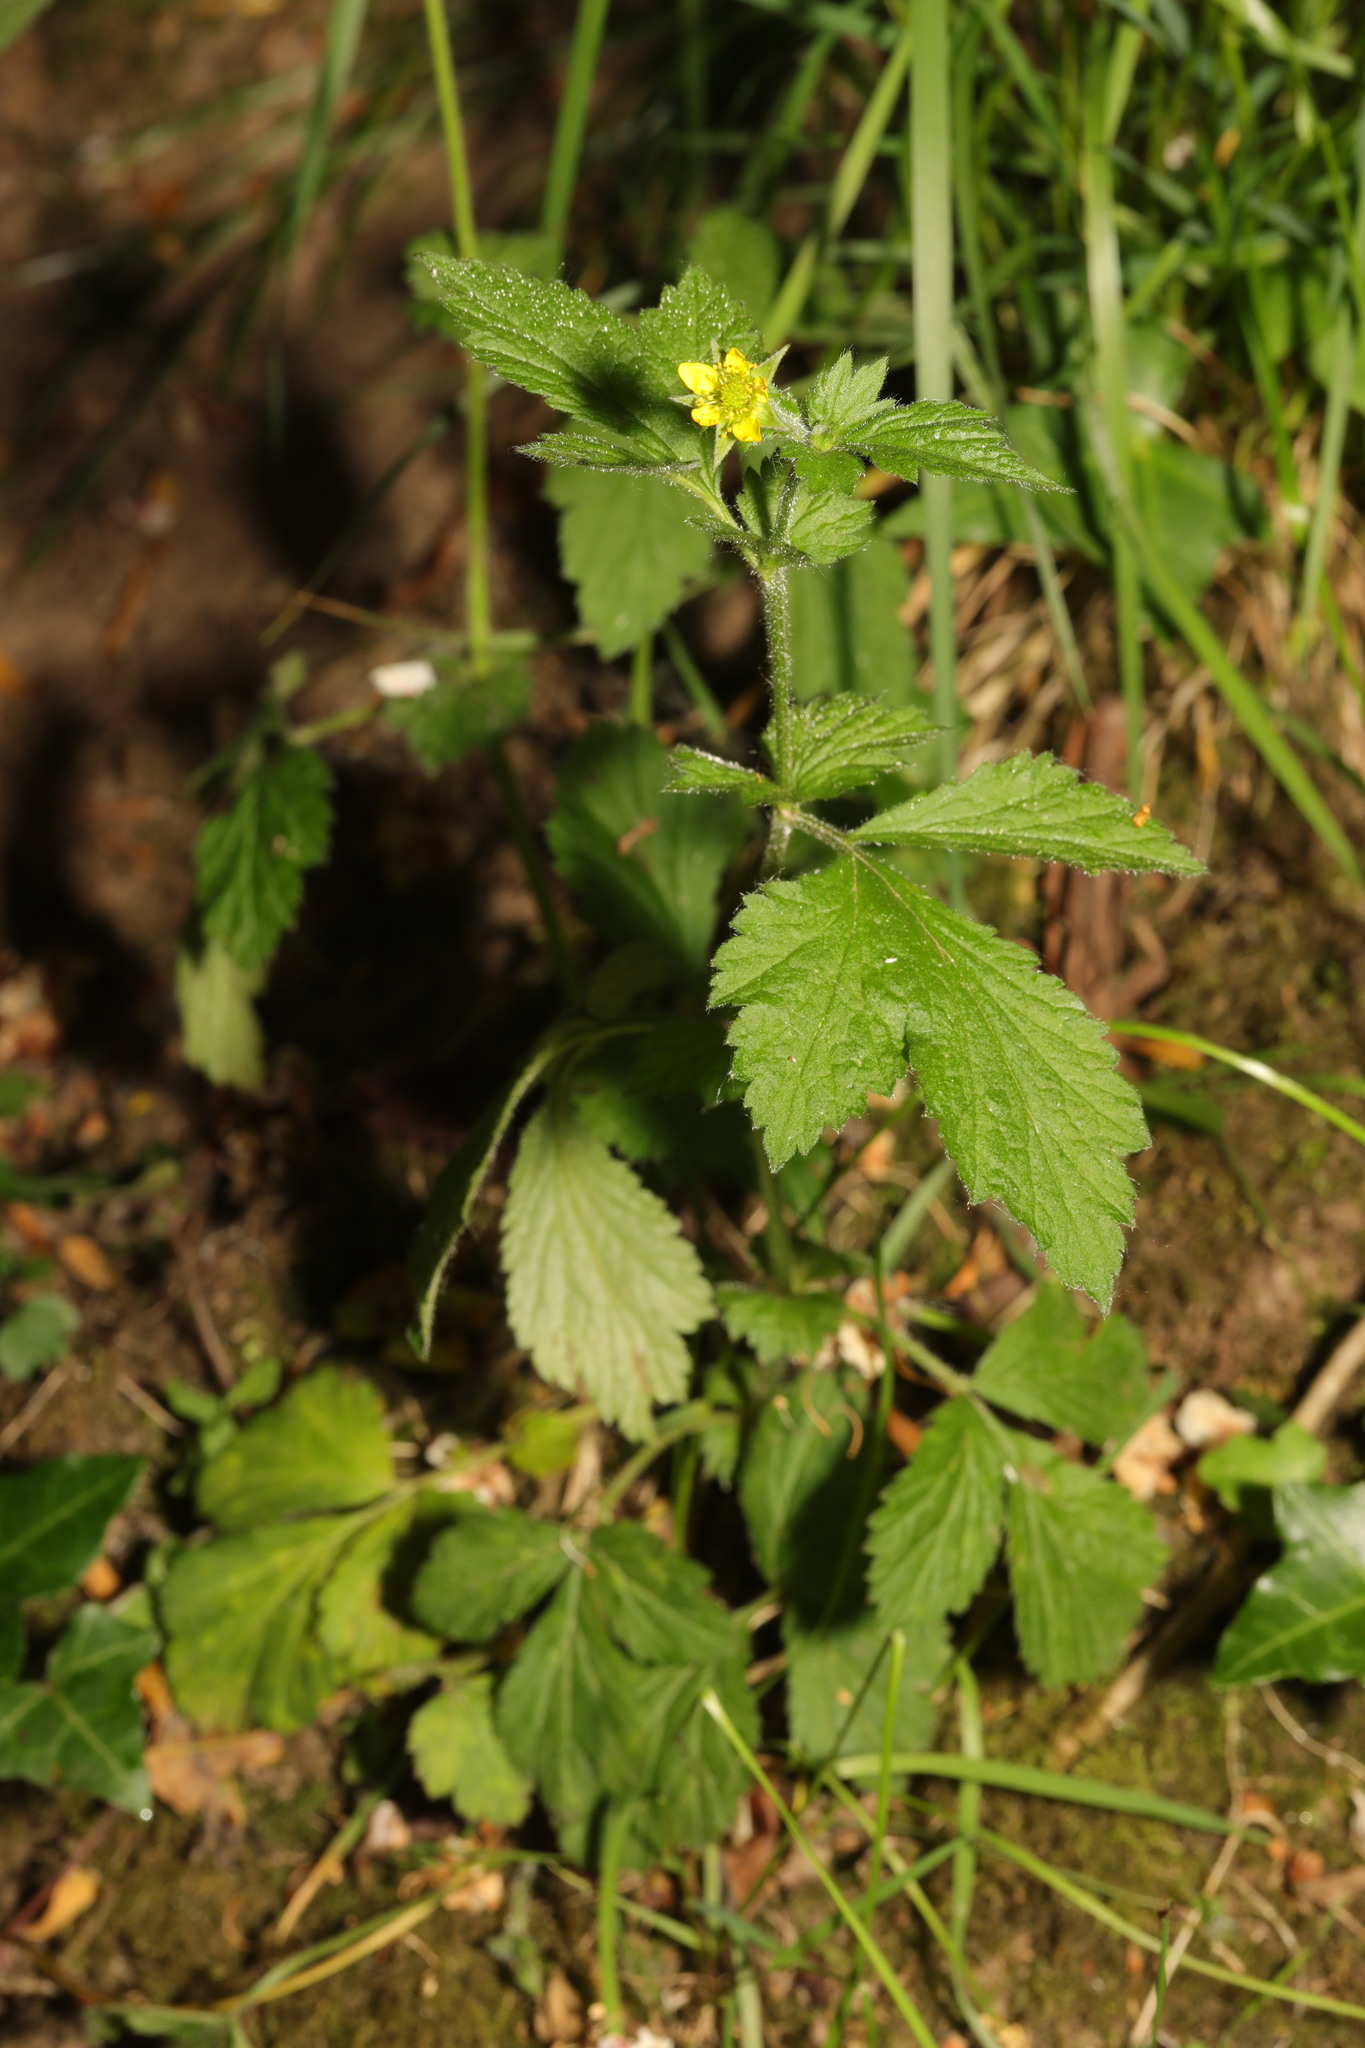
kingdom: Plantae
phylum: Tracheophyta
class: Magnoliopsida
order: Rosales
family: Rosaceae
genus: Geum
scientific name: Geum urbanum
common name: Wood avens
